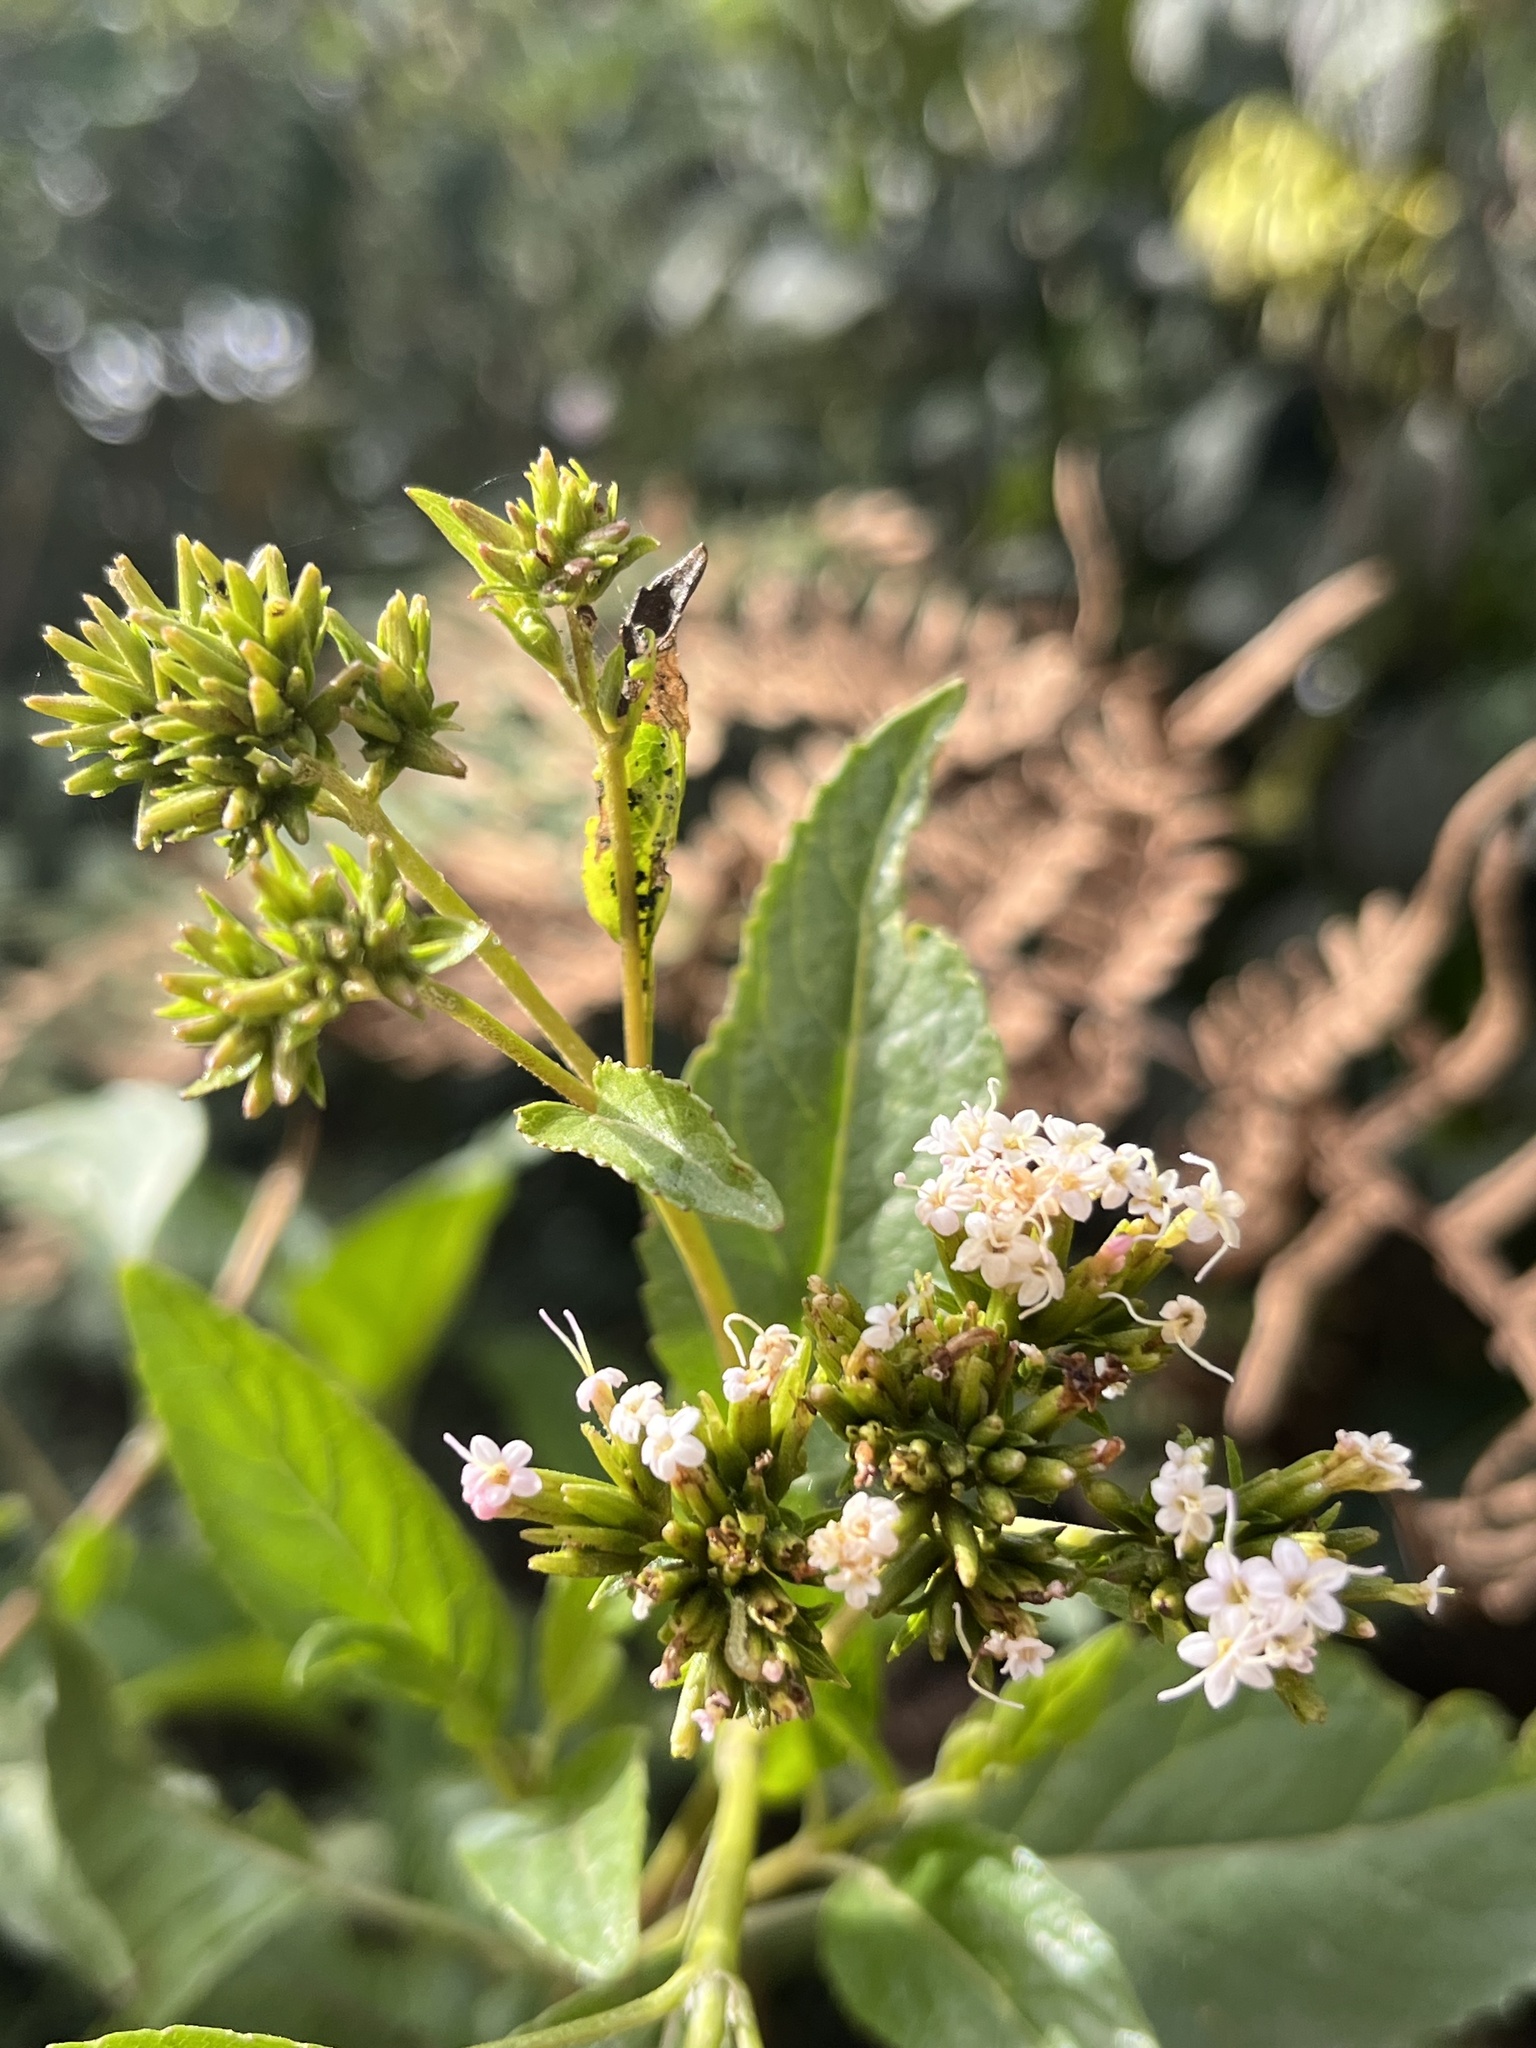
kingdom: Plantae
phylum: Tracheophyta
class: Magnoliopsida
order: Asterales
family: Asteraceae
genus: Stevia
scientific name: Stevia lucida
